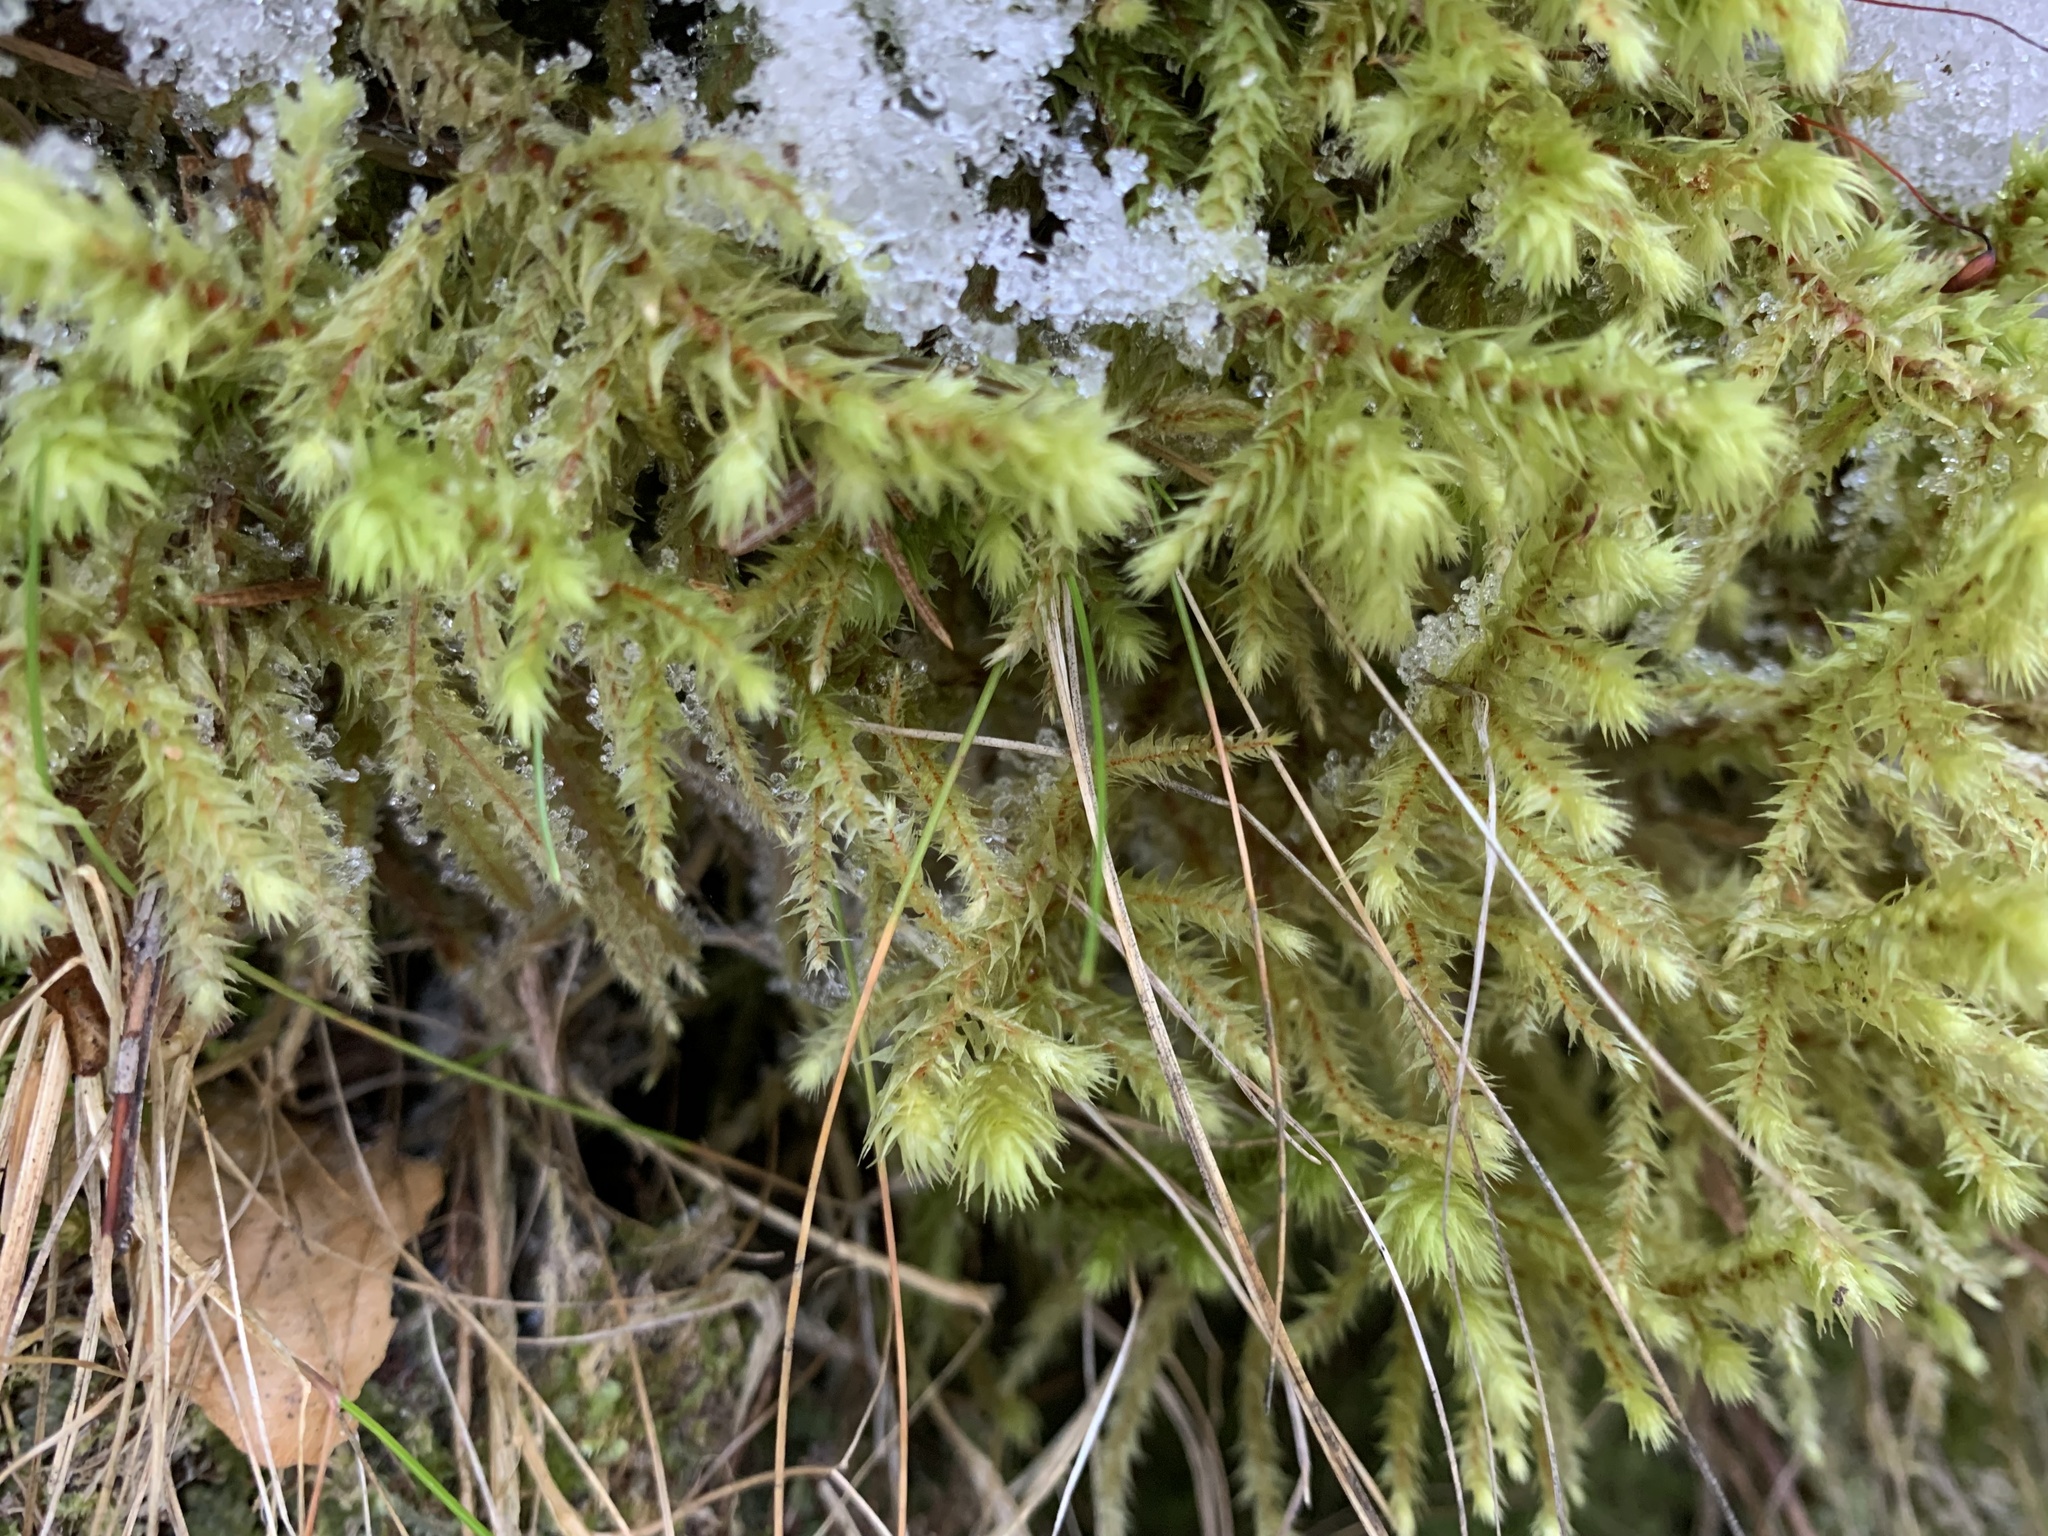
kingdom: Plantae
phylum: Bryophyta
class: Bryopsida
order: Hypnales
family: Hylocomiaceae
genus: Hylocomiadelphus
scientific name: Hylocomiadelphus triquetrus
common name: Rough goose neck moss
